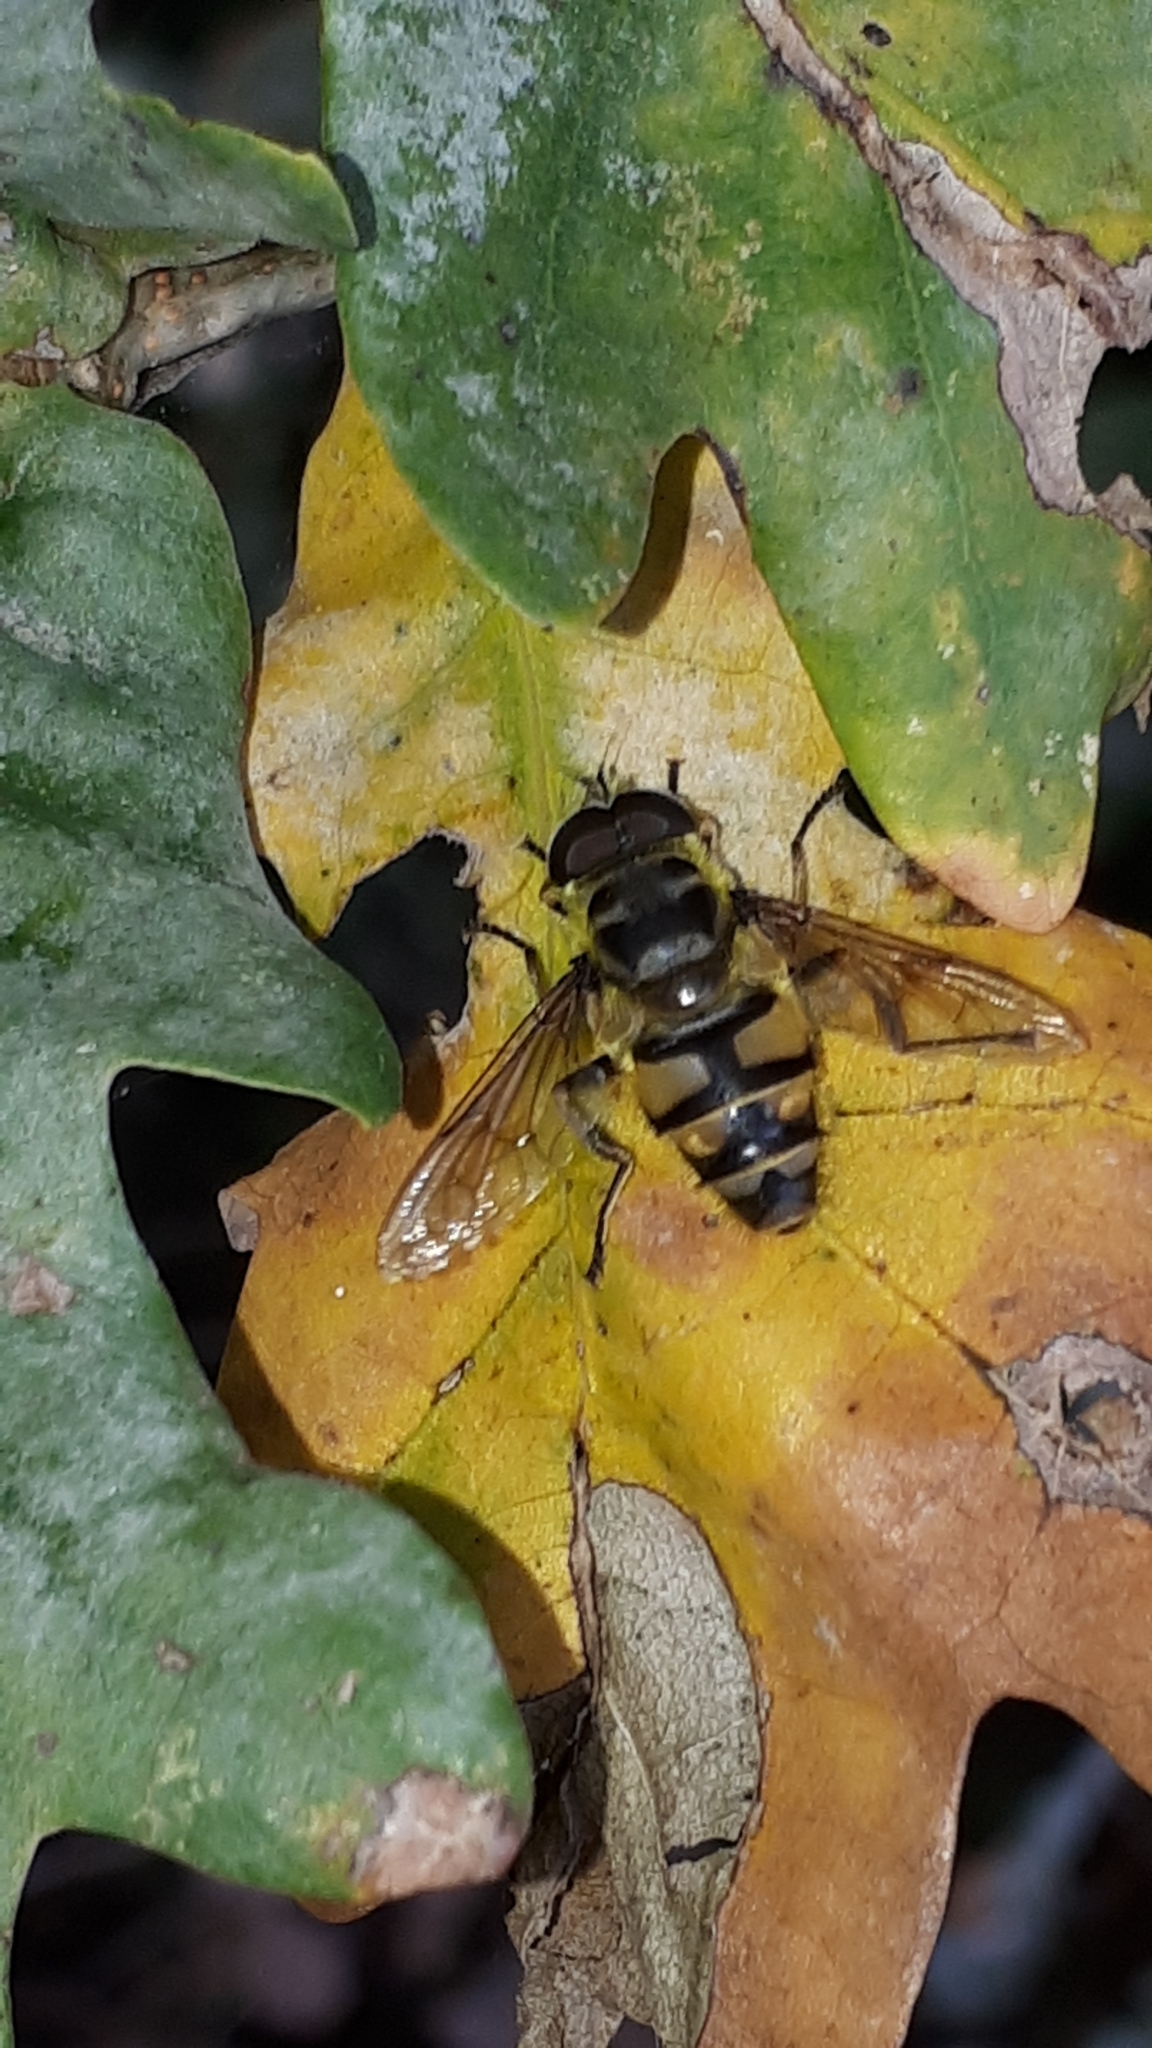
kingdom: Animalia
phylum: Arthropoda
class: Insecta
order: Diptera
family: Syrphidae
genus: Myathropa
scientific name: Myathropa florea
